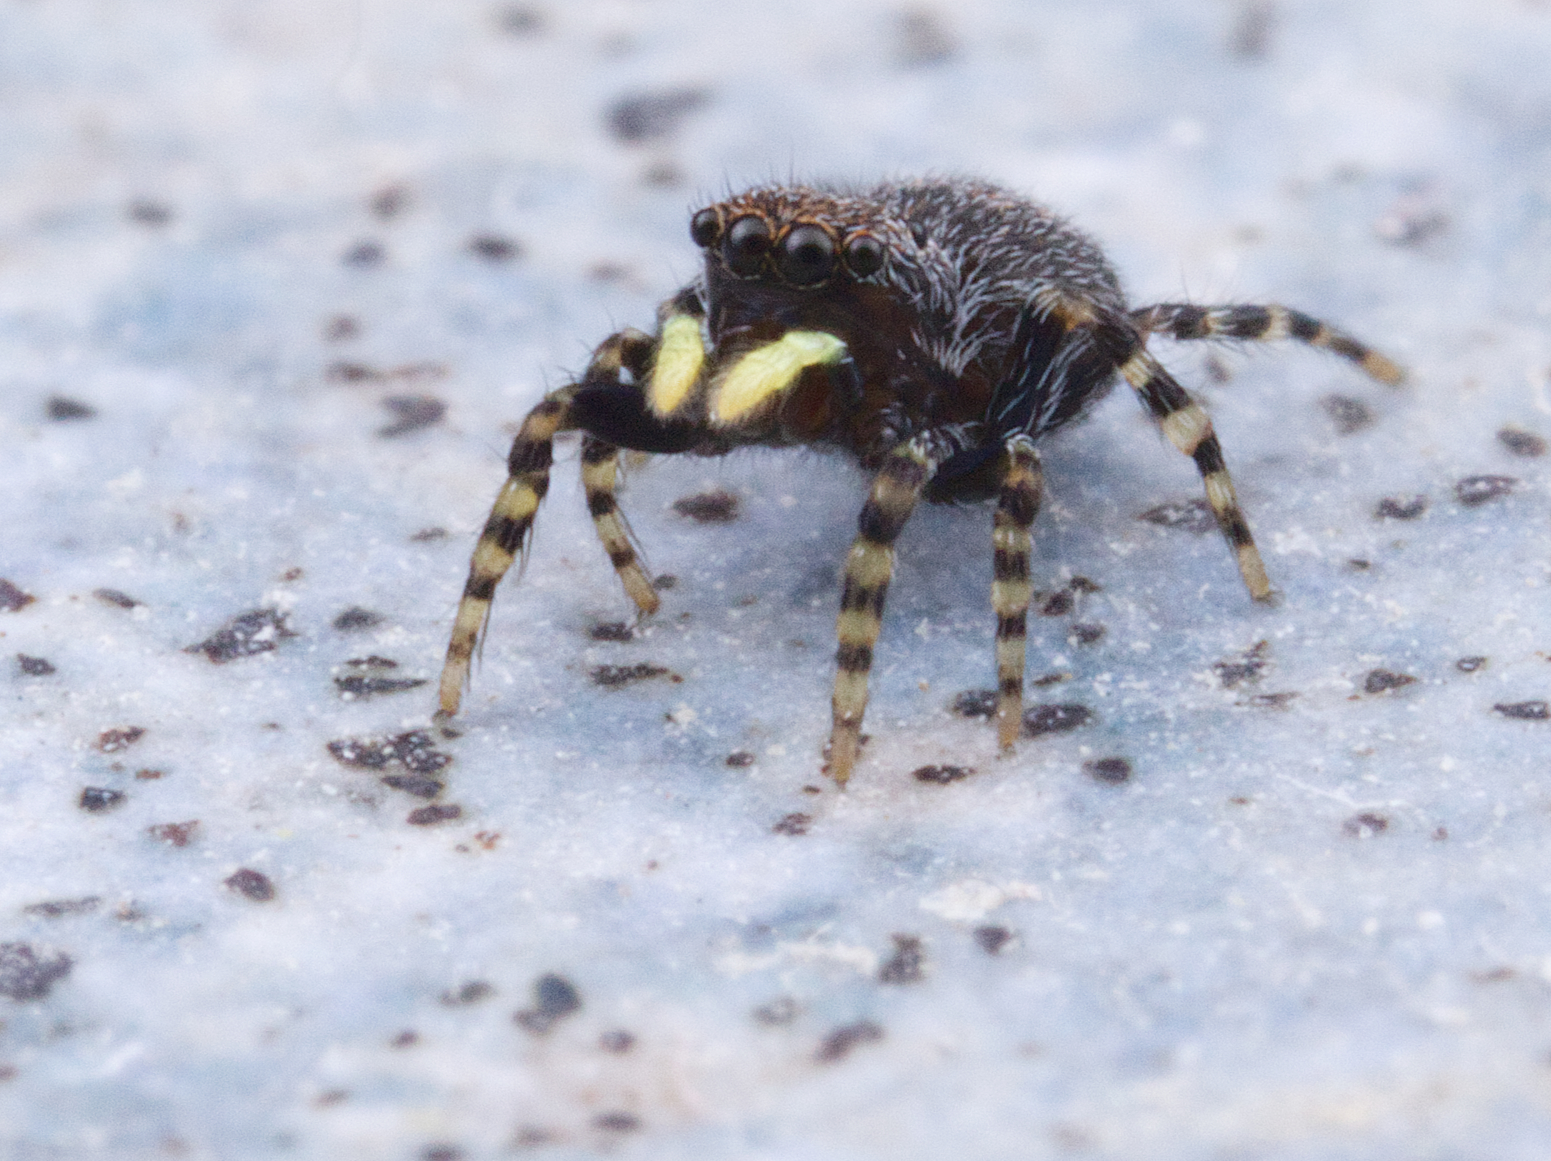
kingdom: Animalia
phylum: Arthropoda
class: Arachnida
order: Araneae
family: Salticidae
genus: Talavera
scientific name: Talavera minuta
